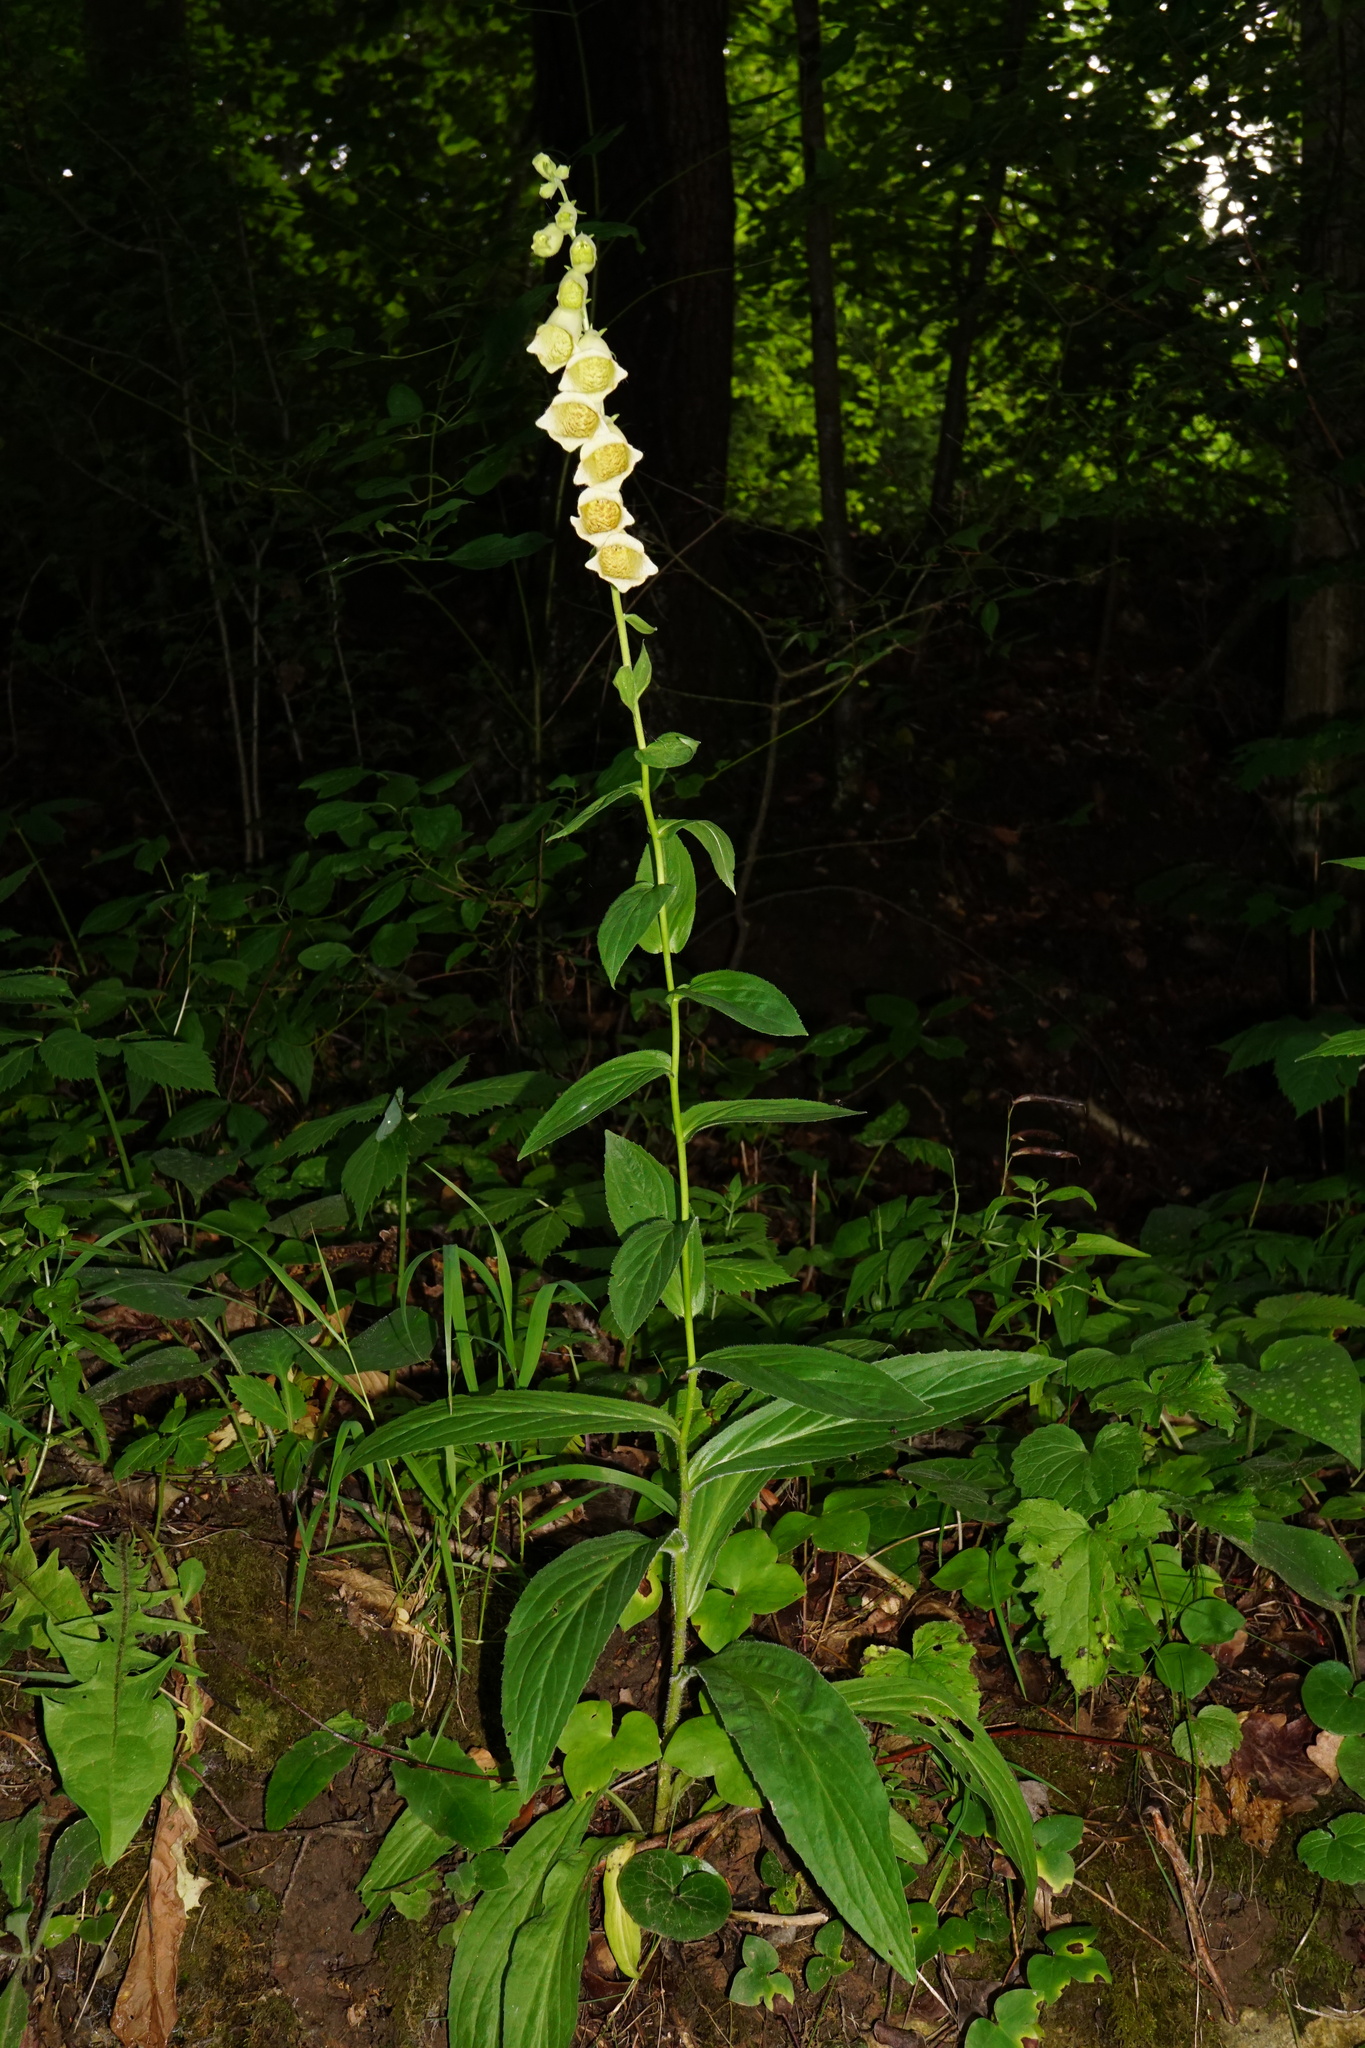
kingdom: Plantae
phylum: Tracheophyta
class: Magnoliopsida
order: Lamiales
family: Plantaginaceae
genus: Digitalis
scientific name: Digitalis grandiflora
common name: Yellow foxglove
